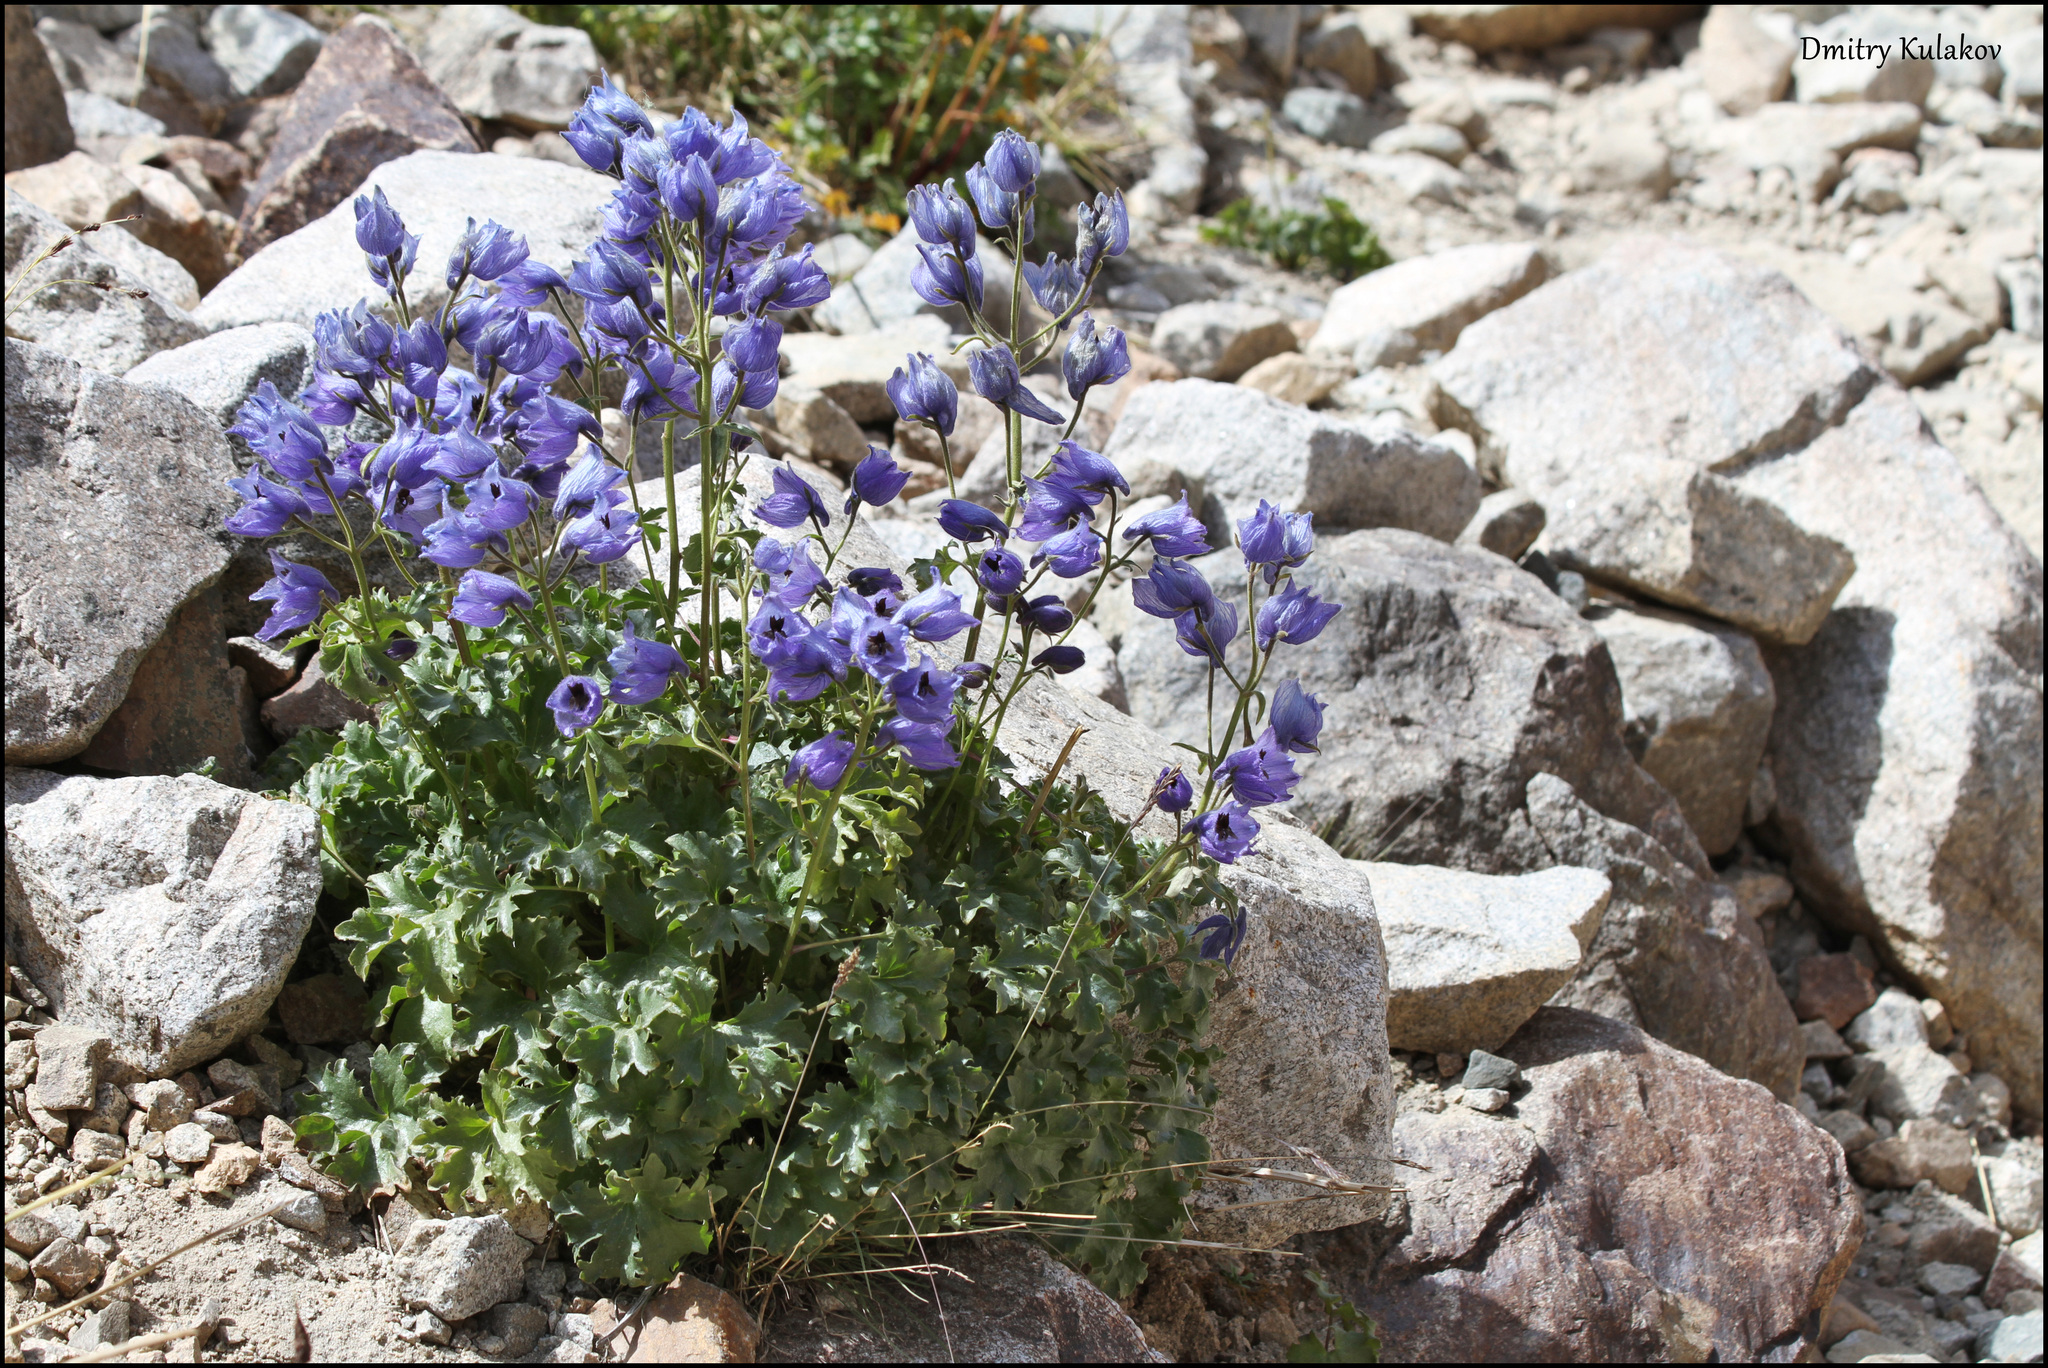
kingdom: Plantae
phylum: Tracheophyta
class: Magnoliopsida
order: Ranunculales
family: Ranunculaceae
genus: Delphinium
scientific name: Delphinium brunonianum
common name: Musk larkspur
